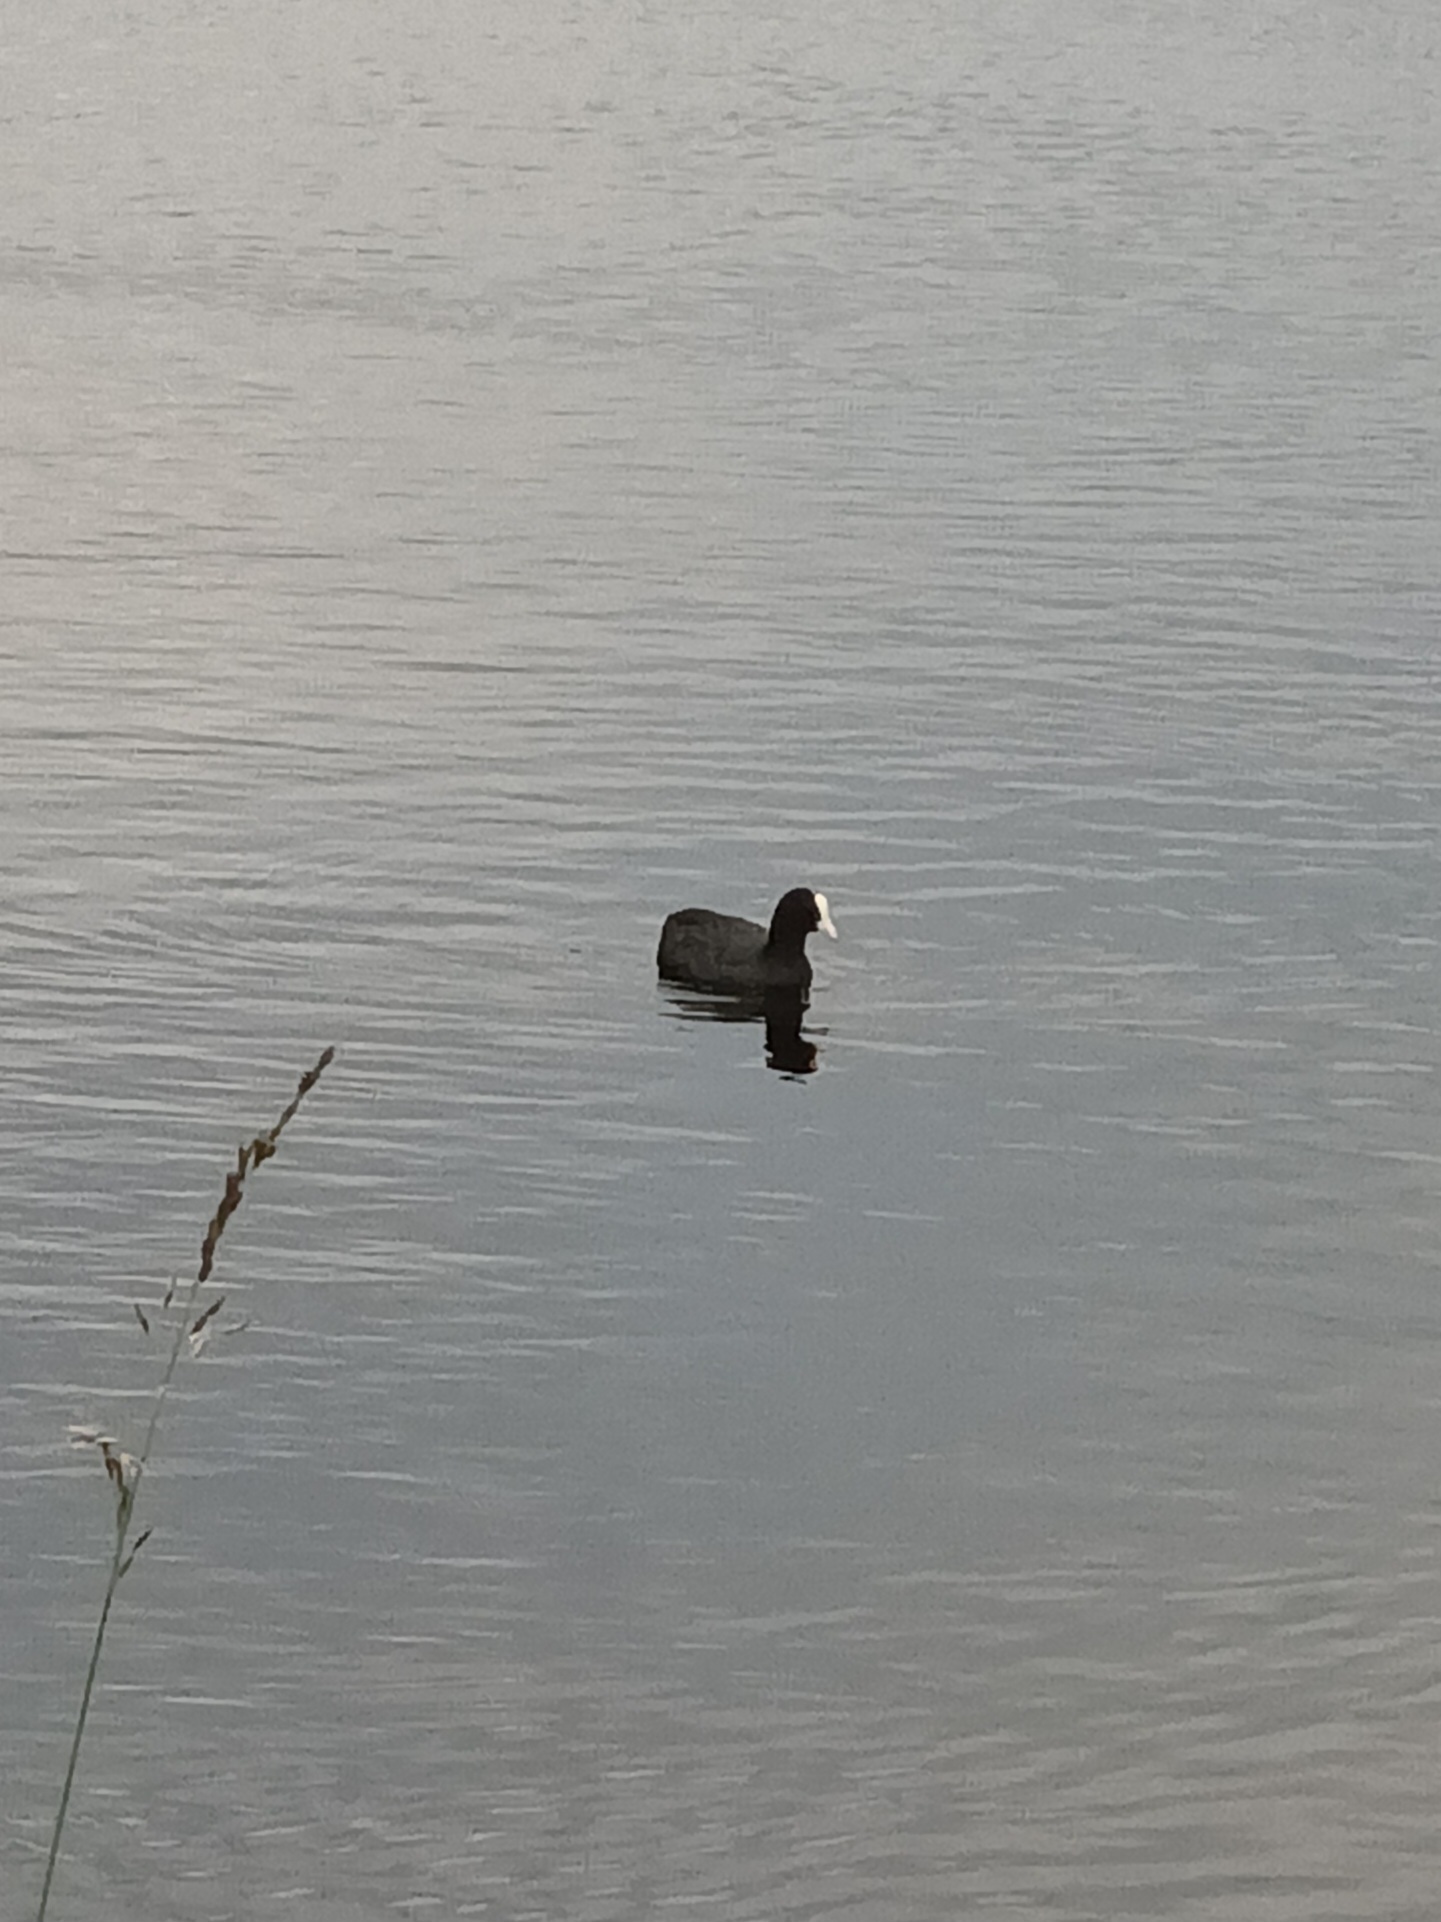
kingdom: Animalia
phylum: Chordata
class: Aves
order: Gruiformes
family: Rallidae
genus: Fulica
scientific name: Fulica atra
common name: Eurasian coot
